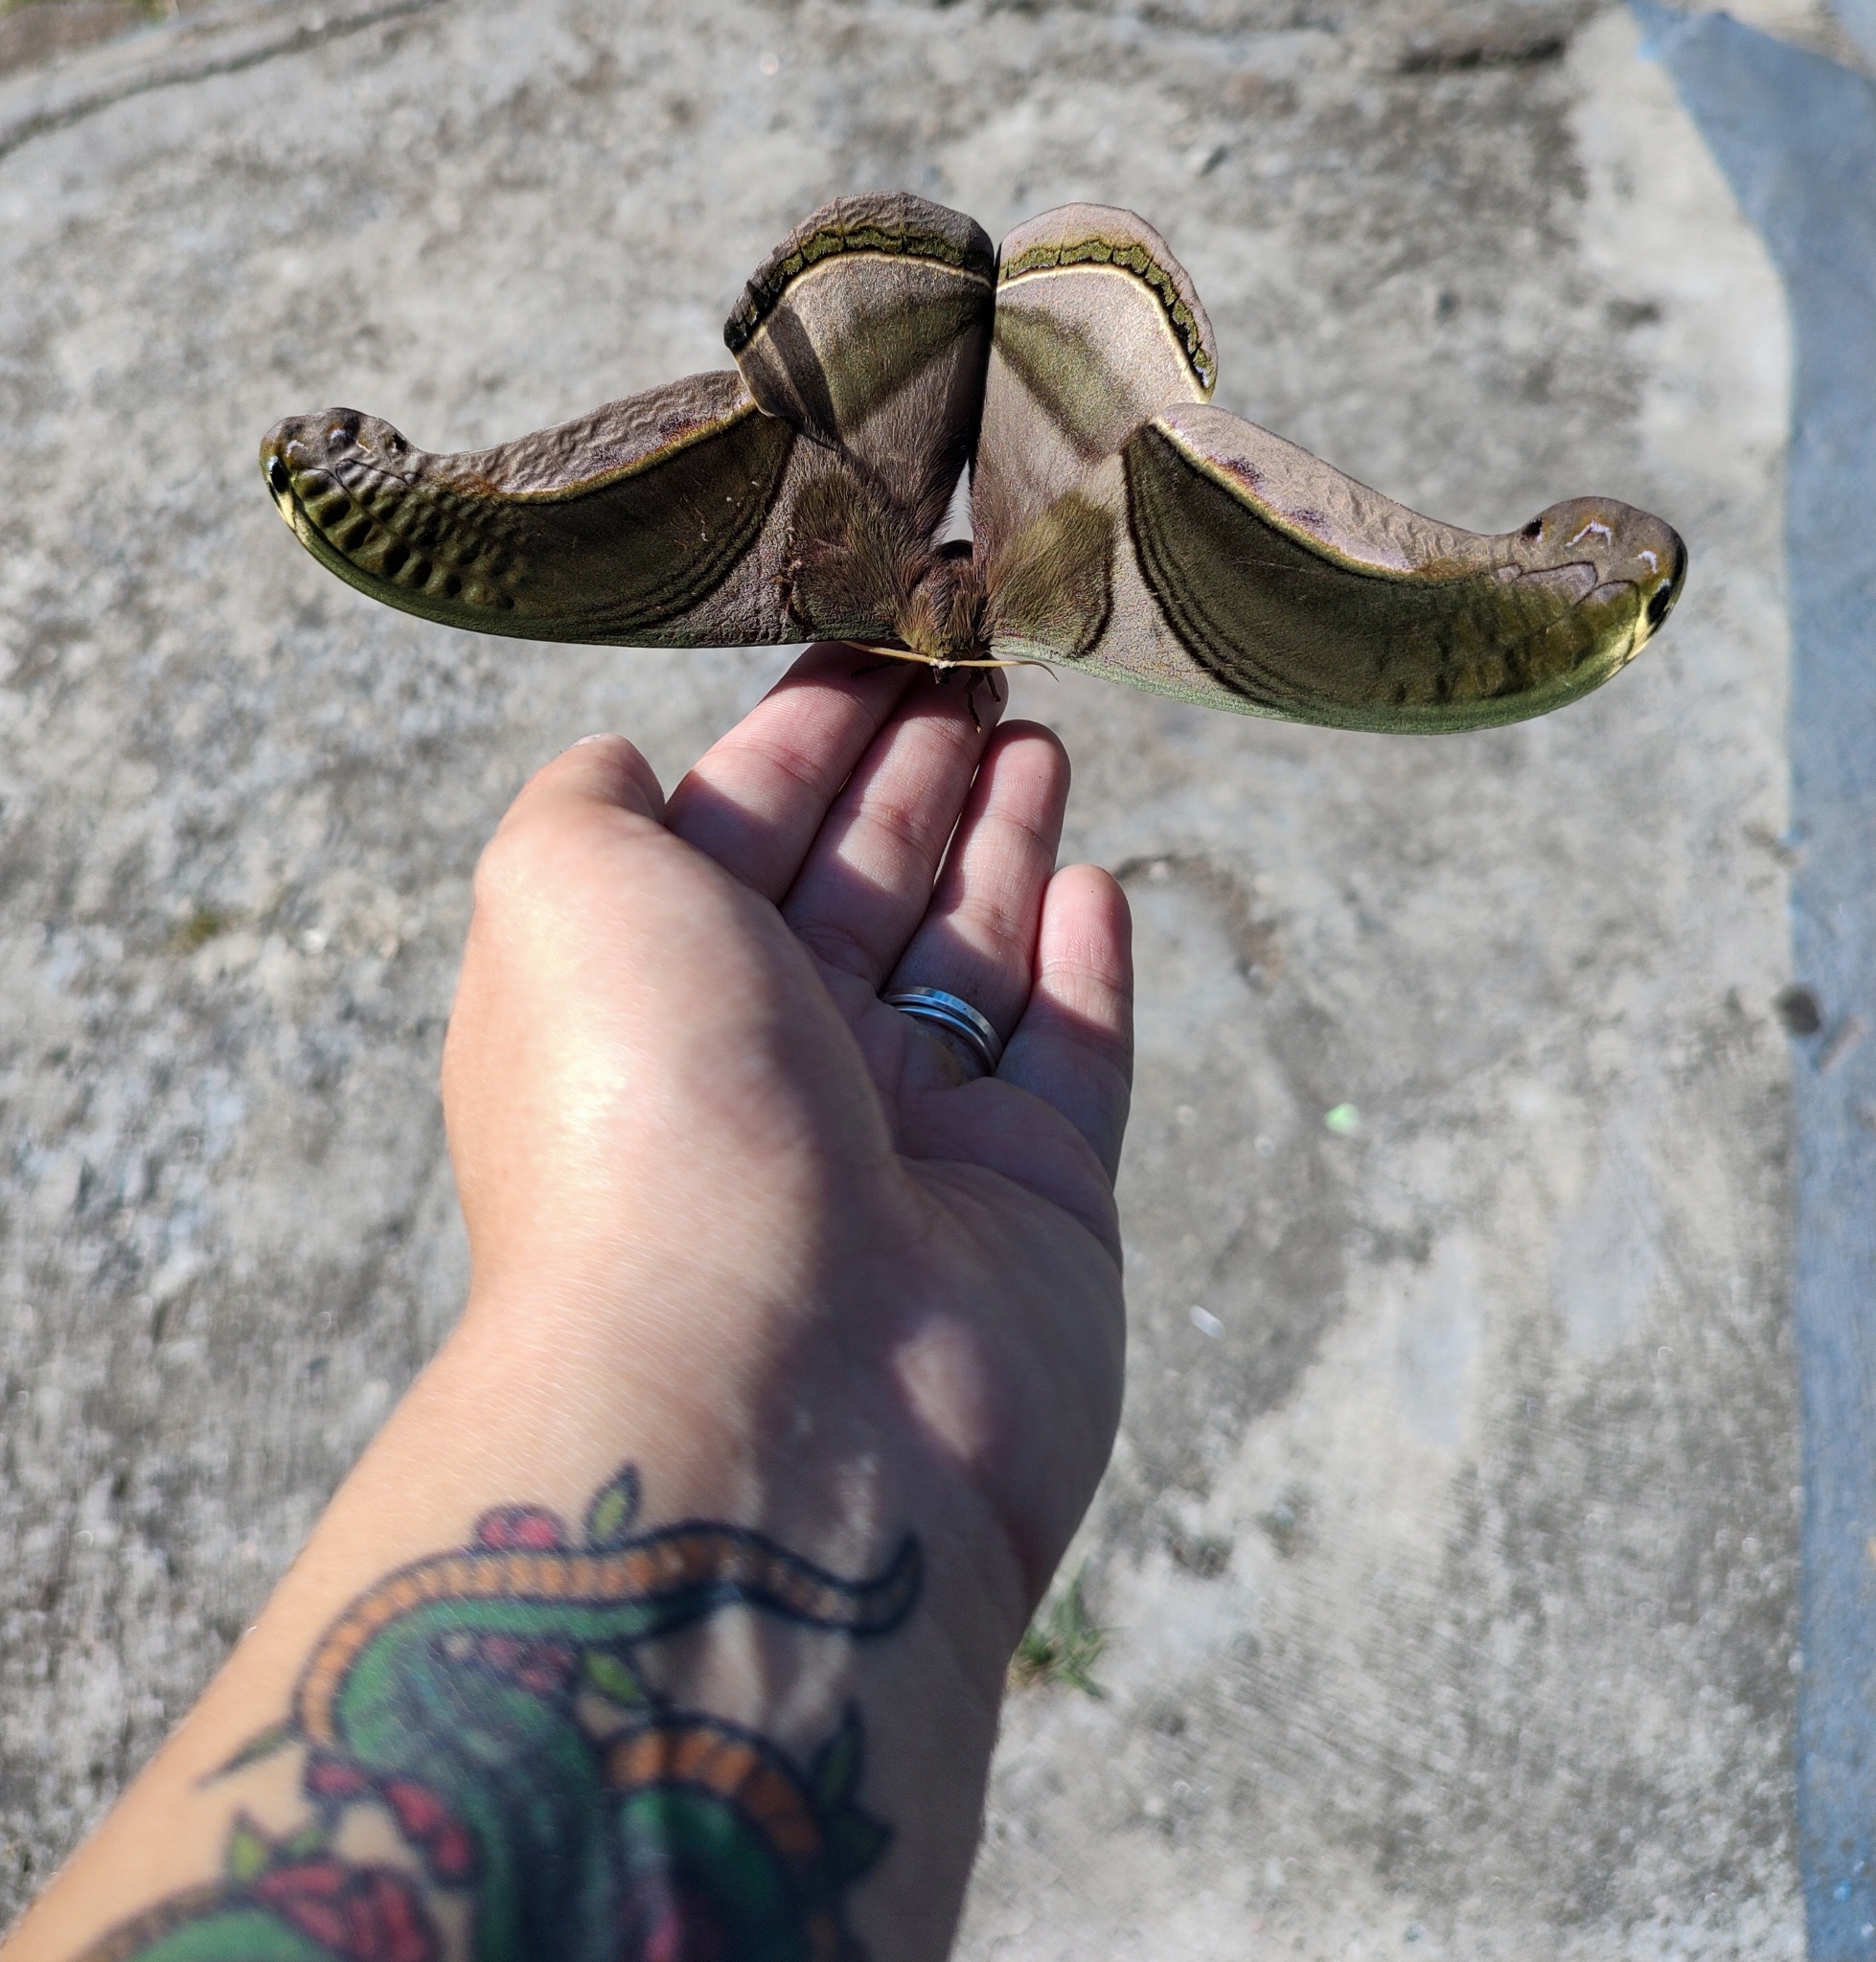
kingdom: Animalia
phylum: Arthropoda
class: Insecta
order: Lepidoptera
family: Saturniidae
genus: Rhescyntis
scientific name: Rhescyntis pseudomartii
